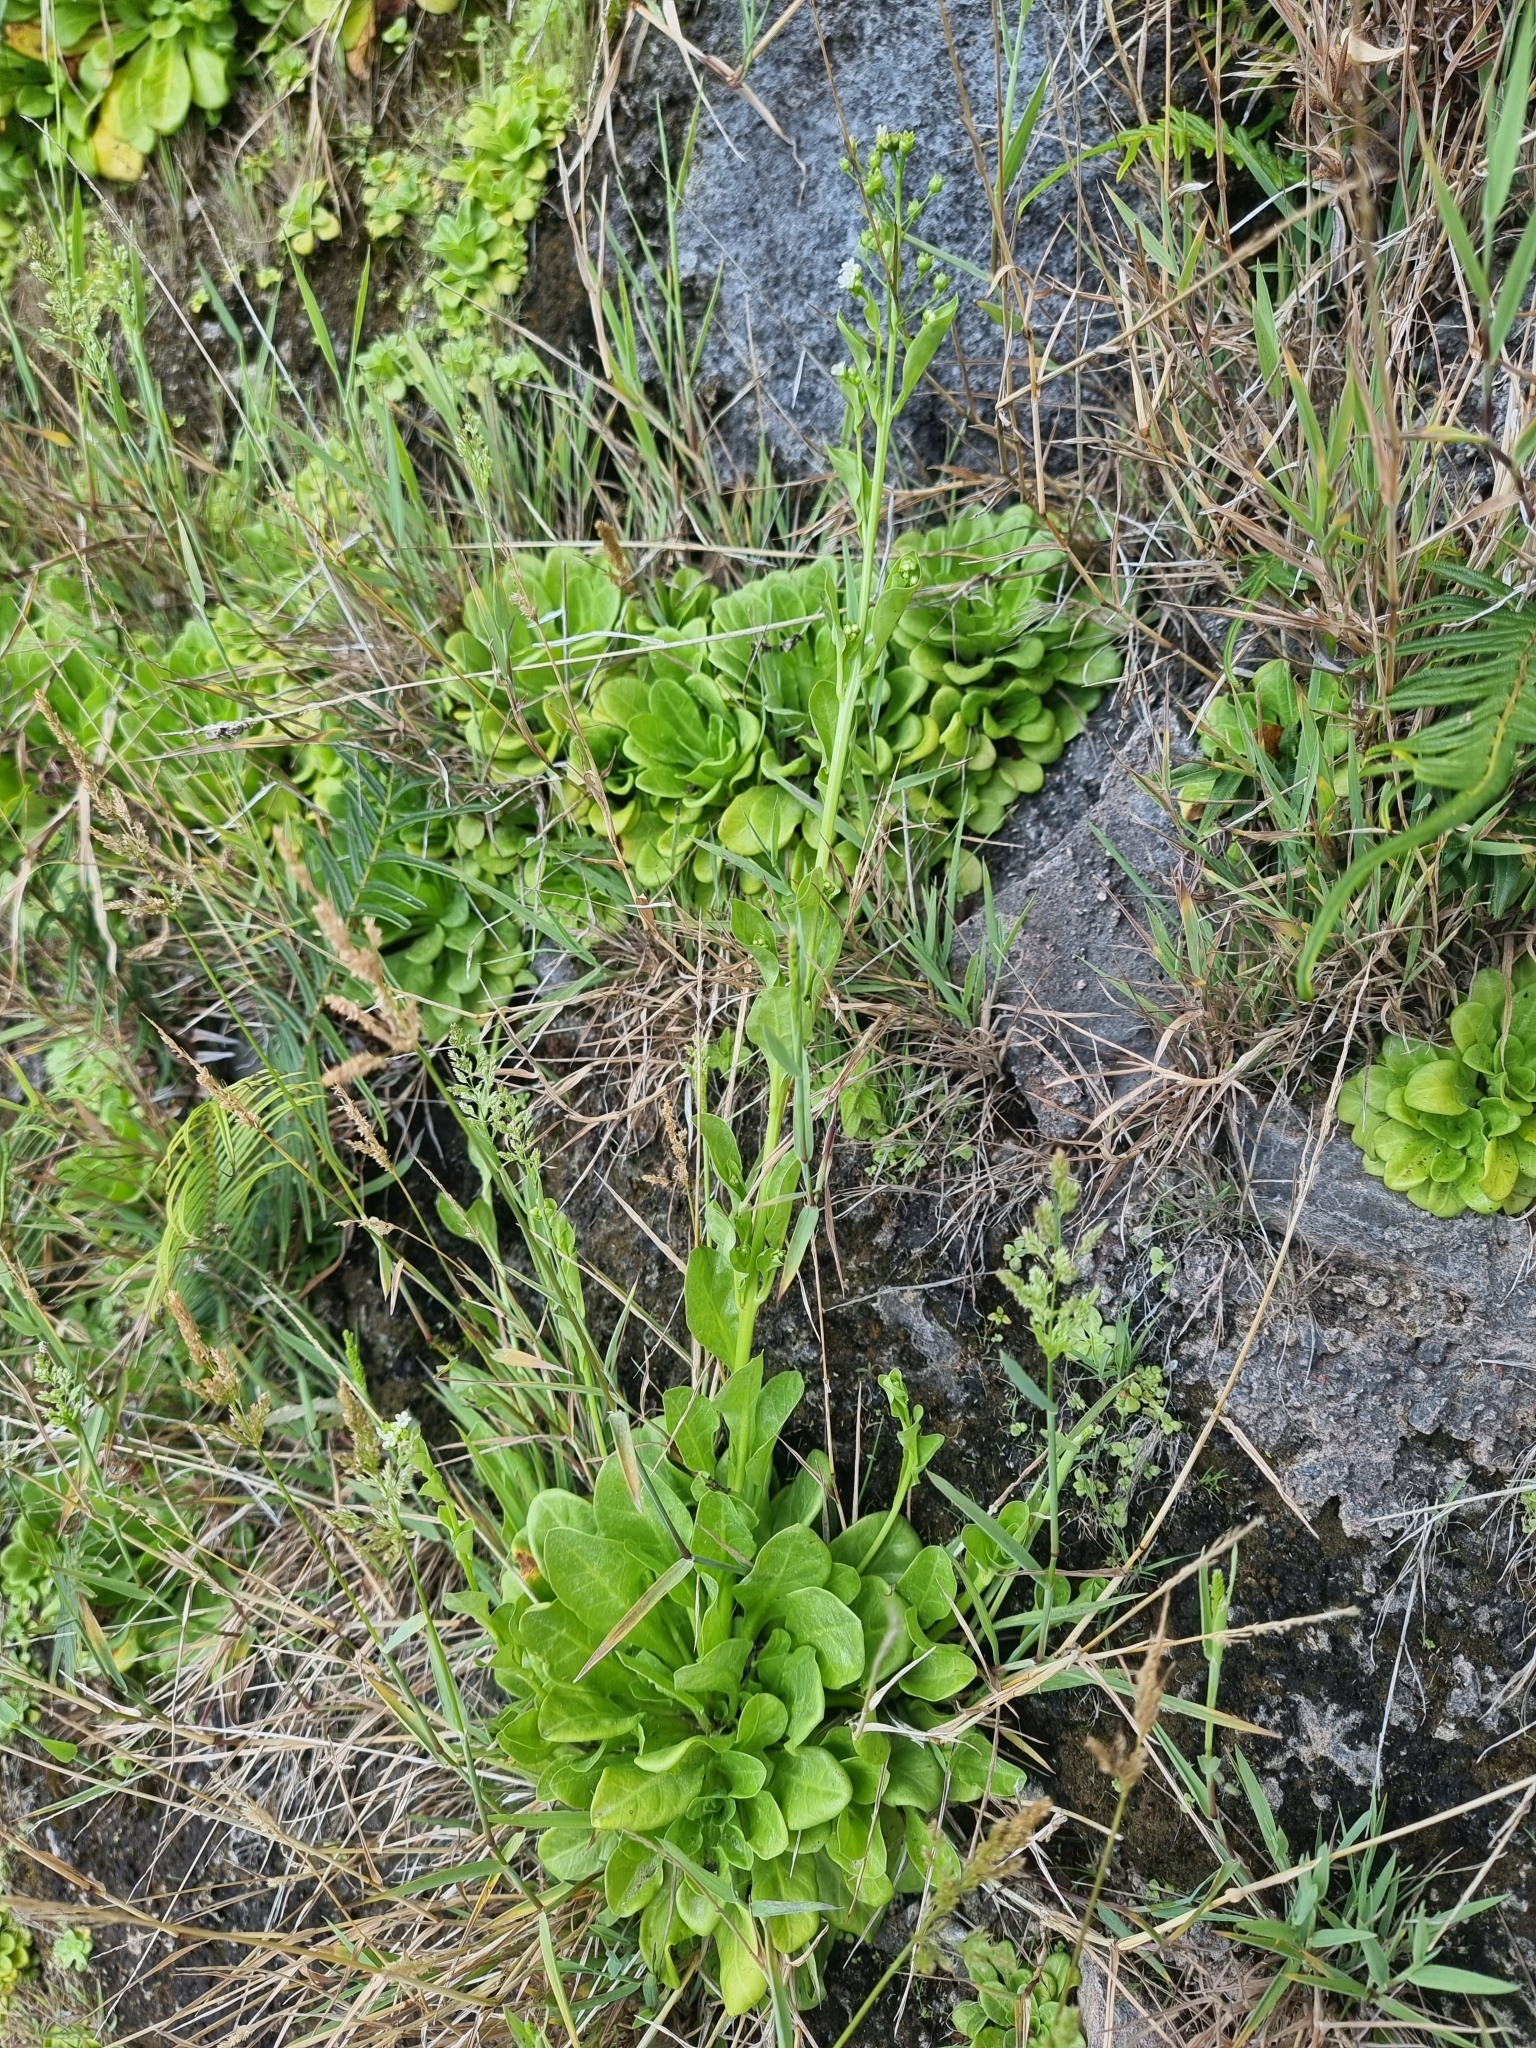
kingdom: Plantae
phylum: Tracheophyta
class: Magnoliopsida
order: Ericales
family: Primulaceae
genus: Samolus
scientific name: Samolus valerandi
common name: Brookweed
